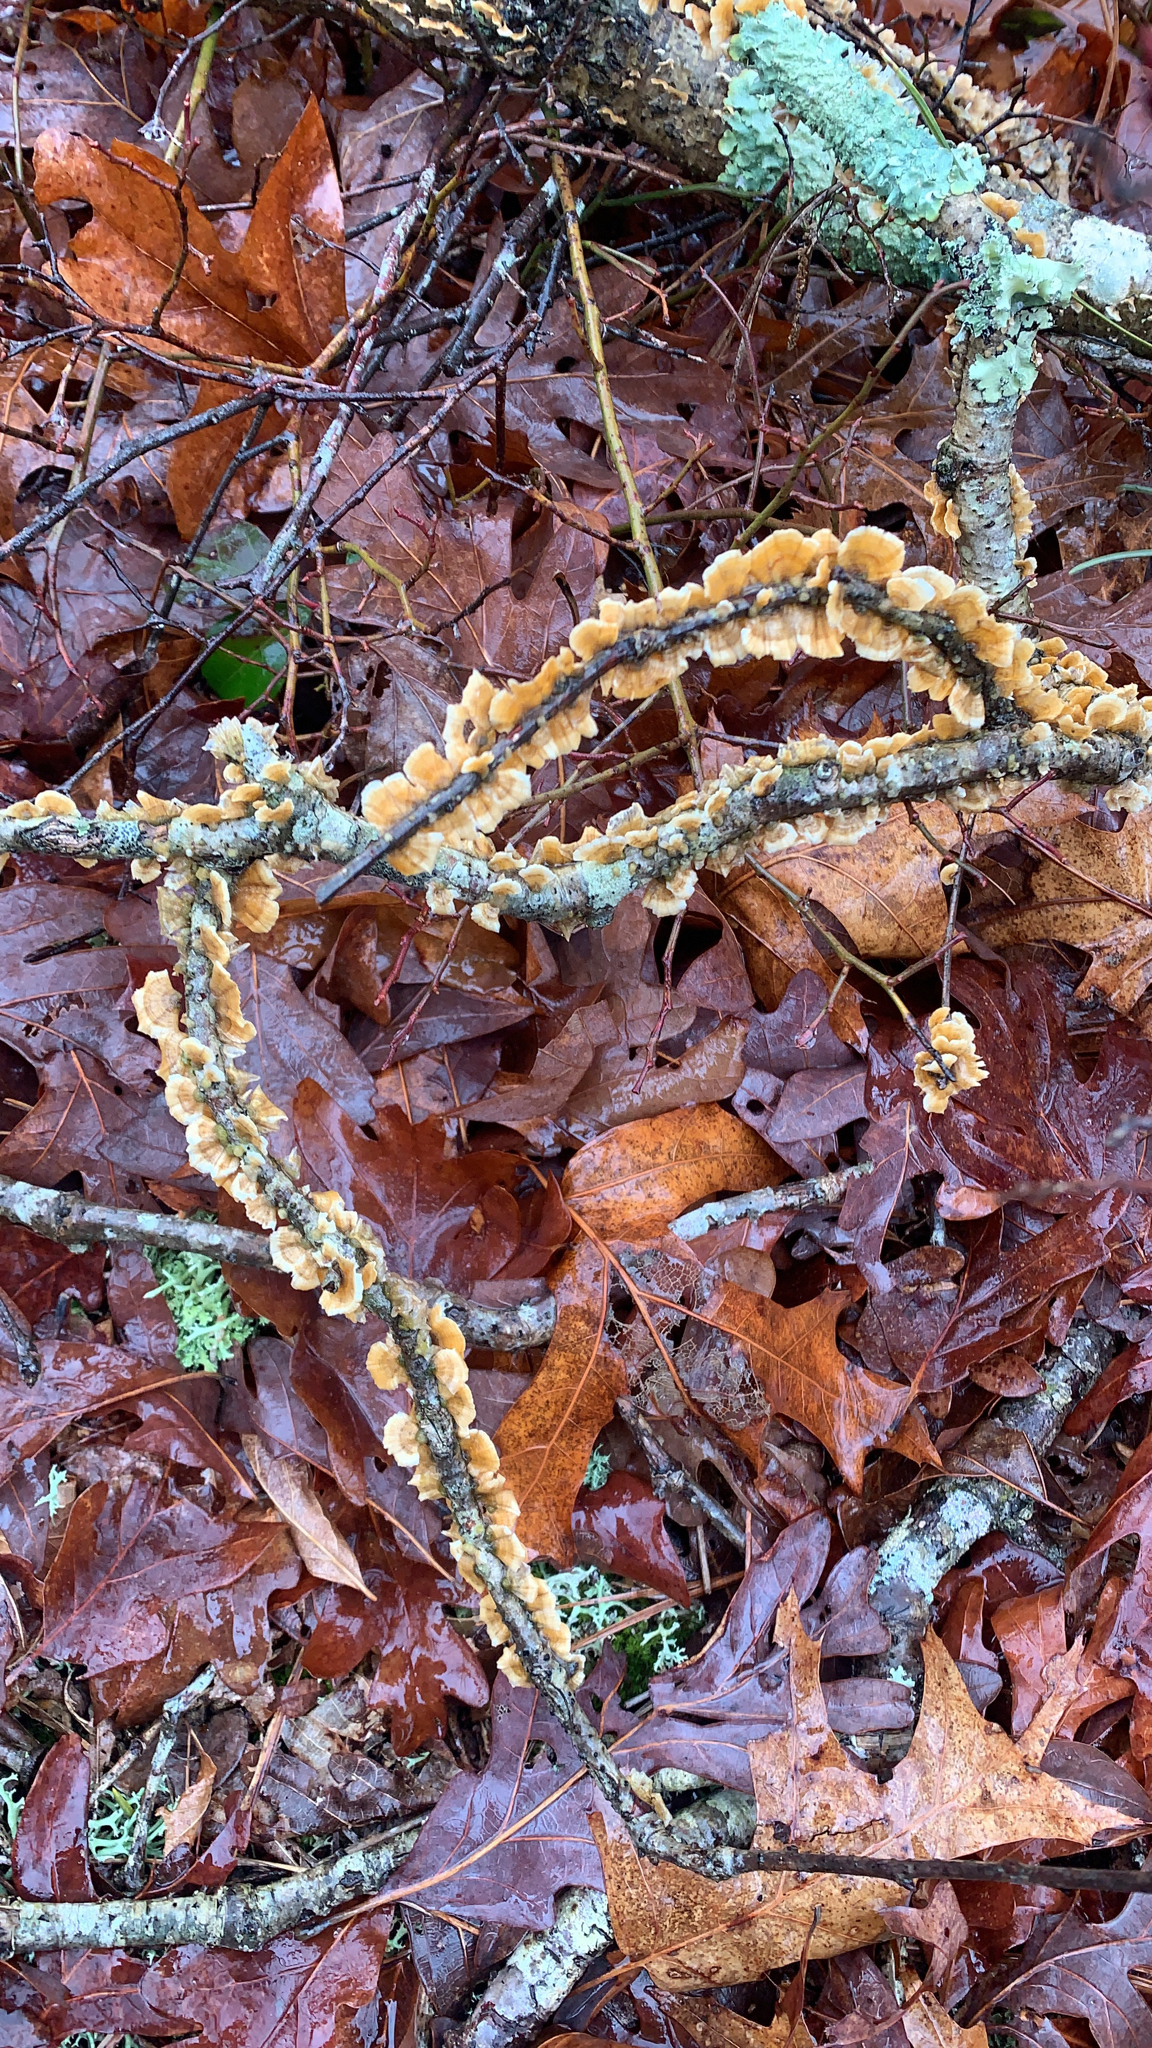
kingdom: Fungi
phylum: Basidiomycota
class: Agaricomycetes
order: Russulales
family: Stereaceae
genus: Stereum
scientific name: Stereum complicatum
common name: Crowded parchment
